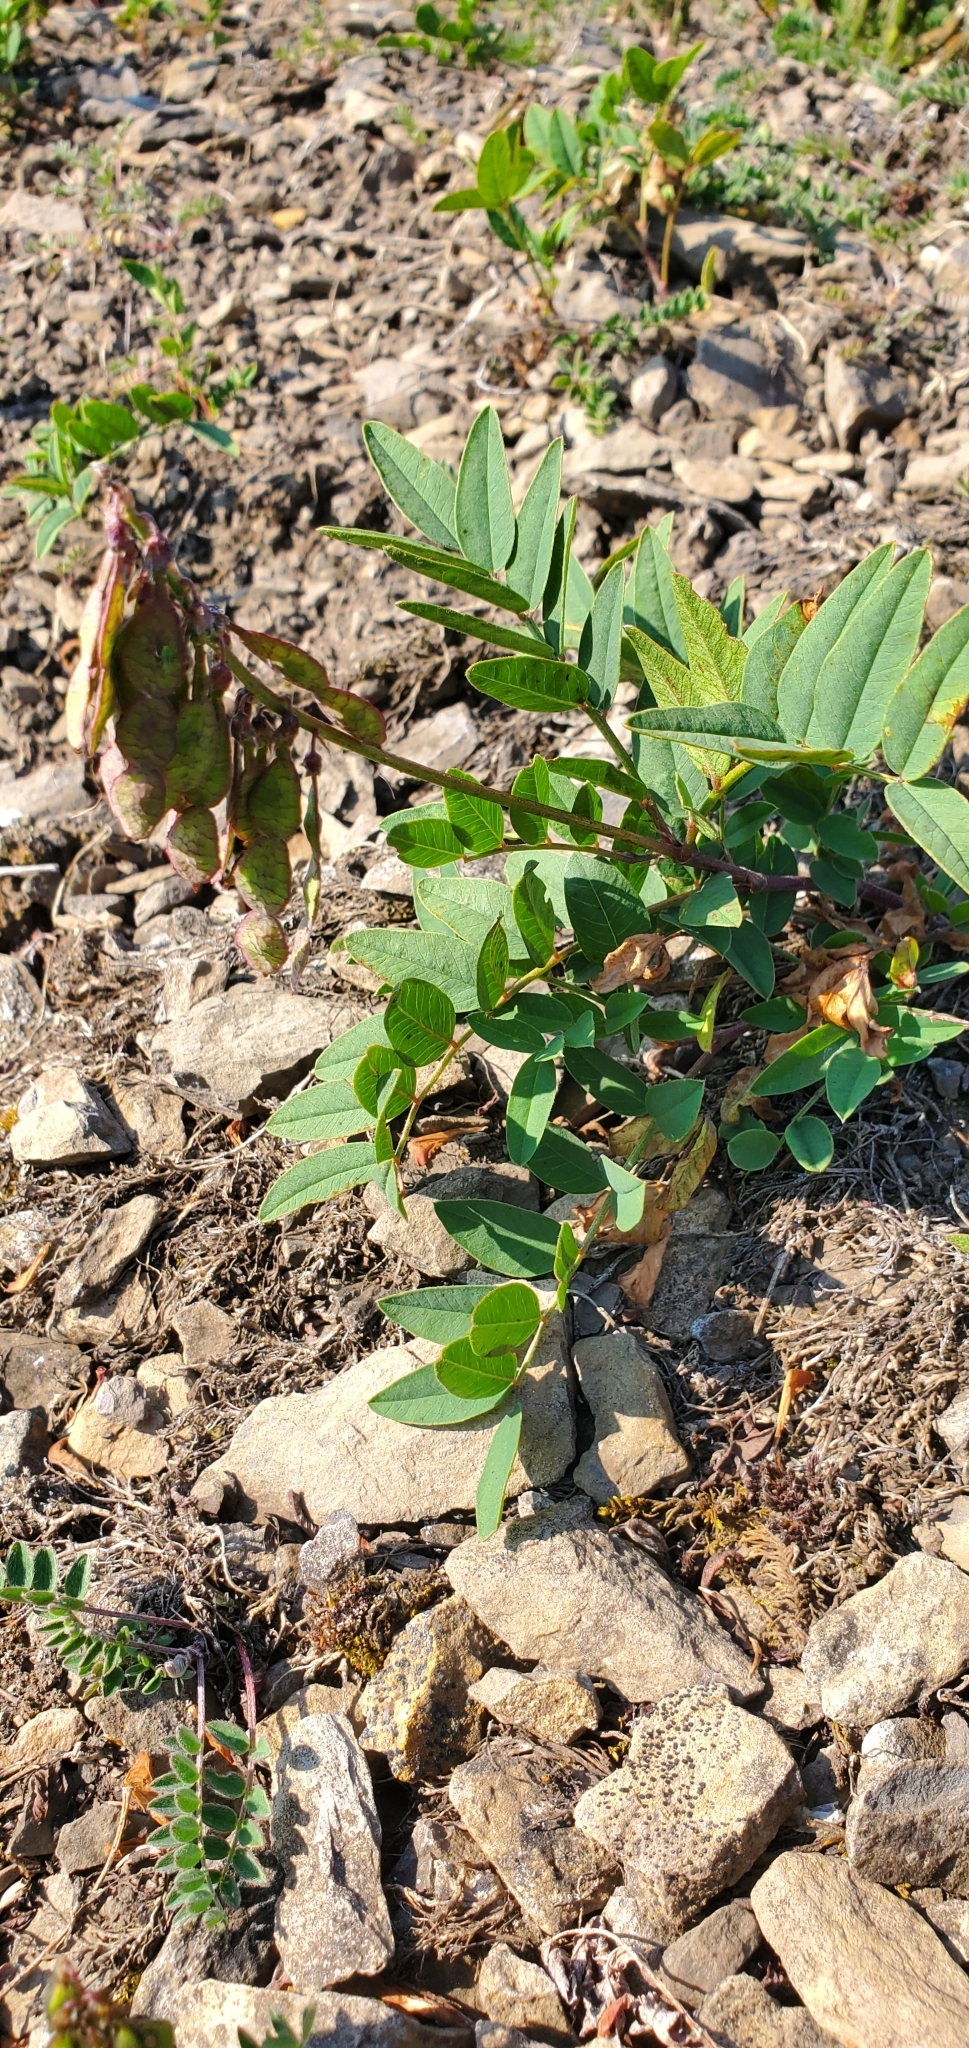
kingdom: Plantae
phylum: Tracheophyta
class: Magnoliopsida
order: Fabales
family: Fabaceae
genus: Hedysarum
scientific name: Hedysarum alpinum
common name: Alpine sweet-vetch
